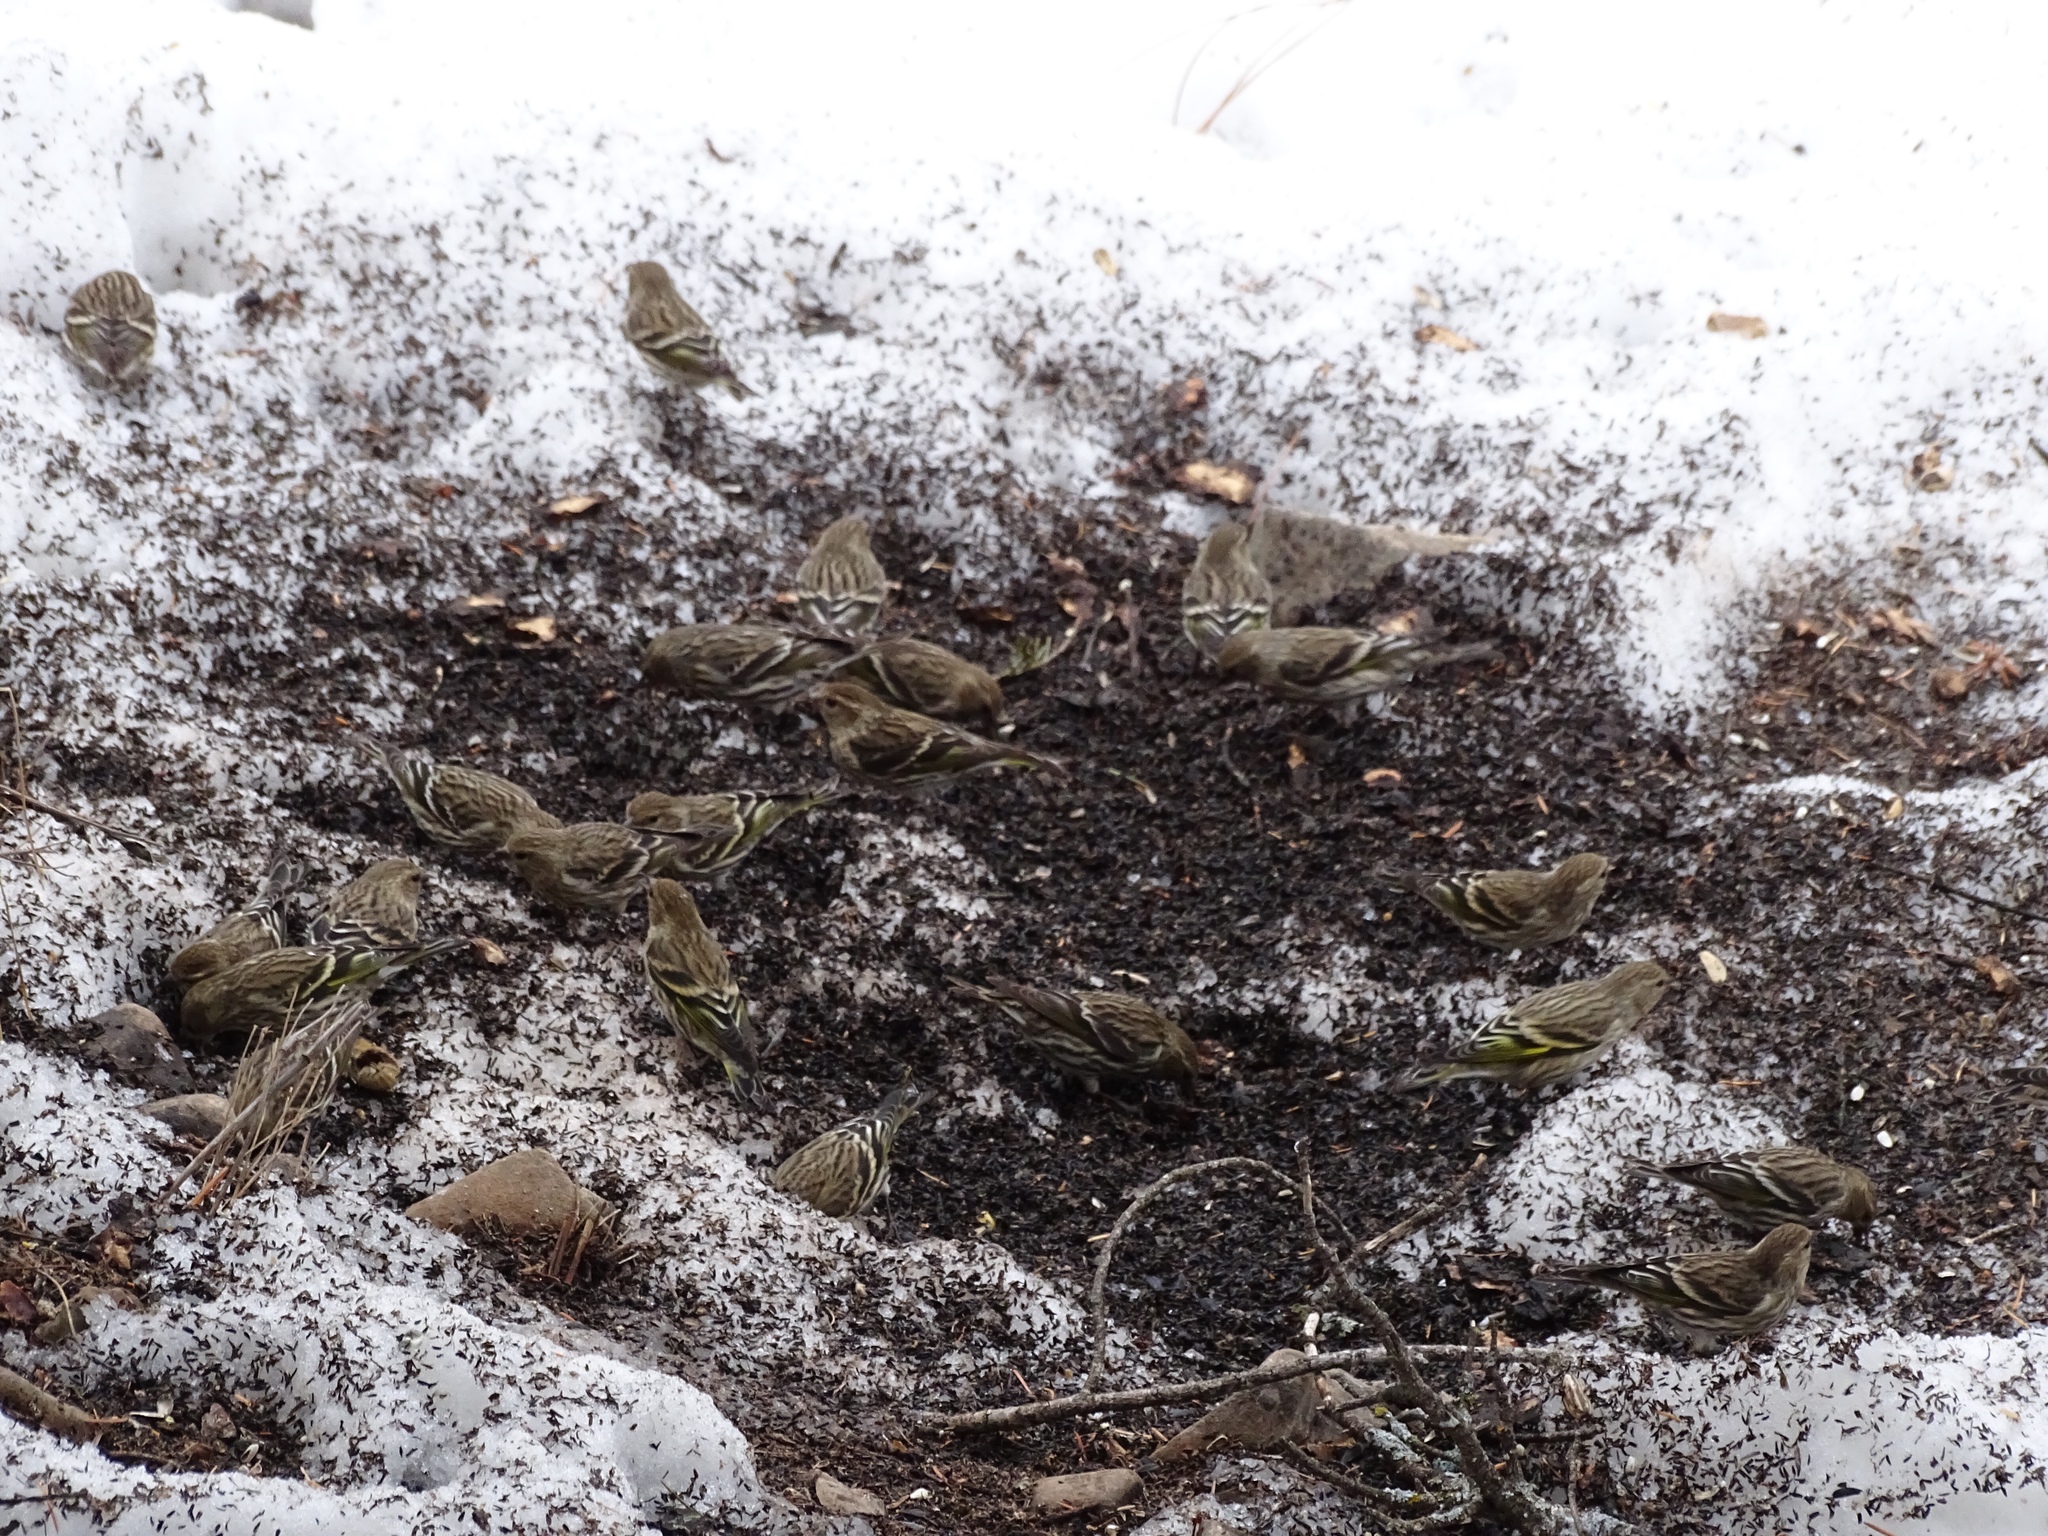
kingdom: Animalia
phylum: Chordata
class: Aves
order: Passeriformes
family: Fringillidae
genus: Spinus
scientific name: Spinus pinus
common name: Pine siskin
